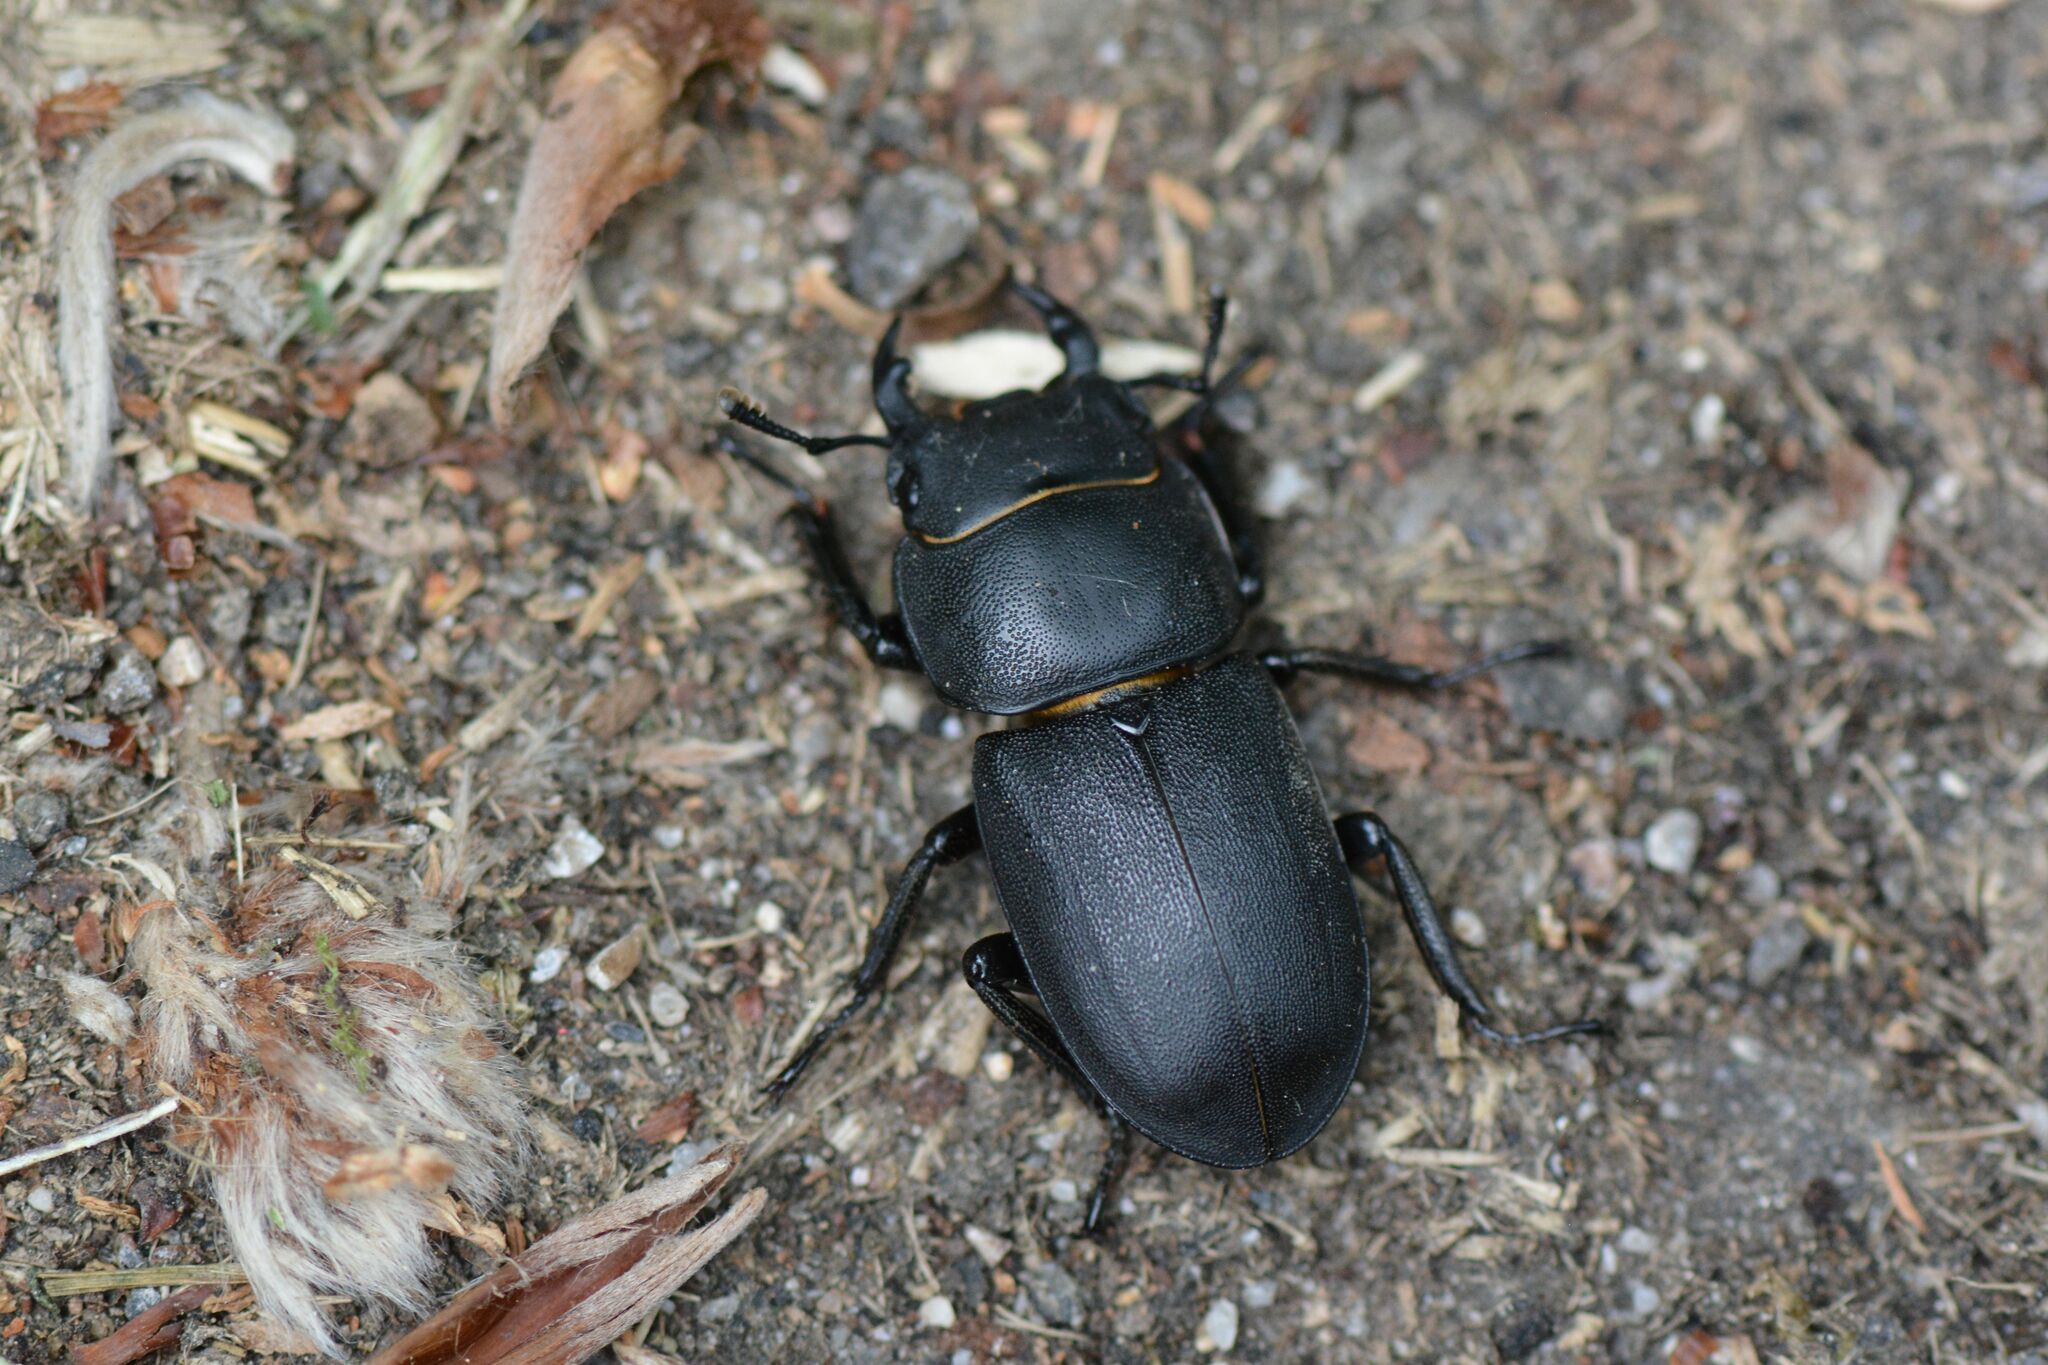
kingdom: Animalia
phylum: Arthropoda
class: Insecta
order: Coleoptera
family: Lucanidae
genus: Dorcus
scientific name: Dorcus parallelipipedus
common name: Lesser stag beetle
